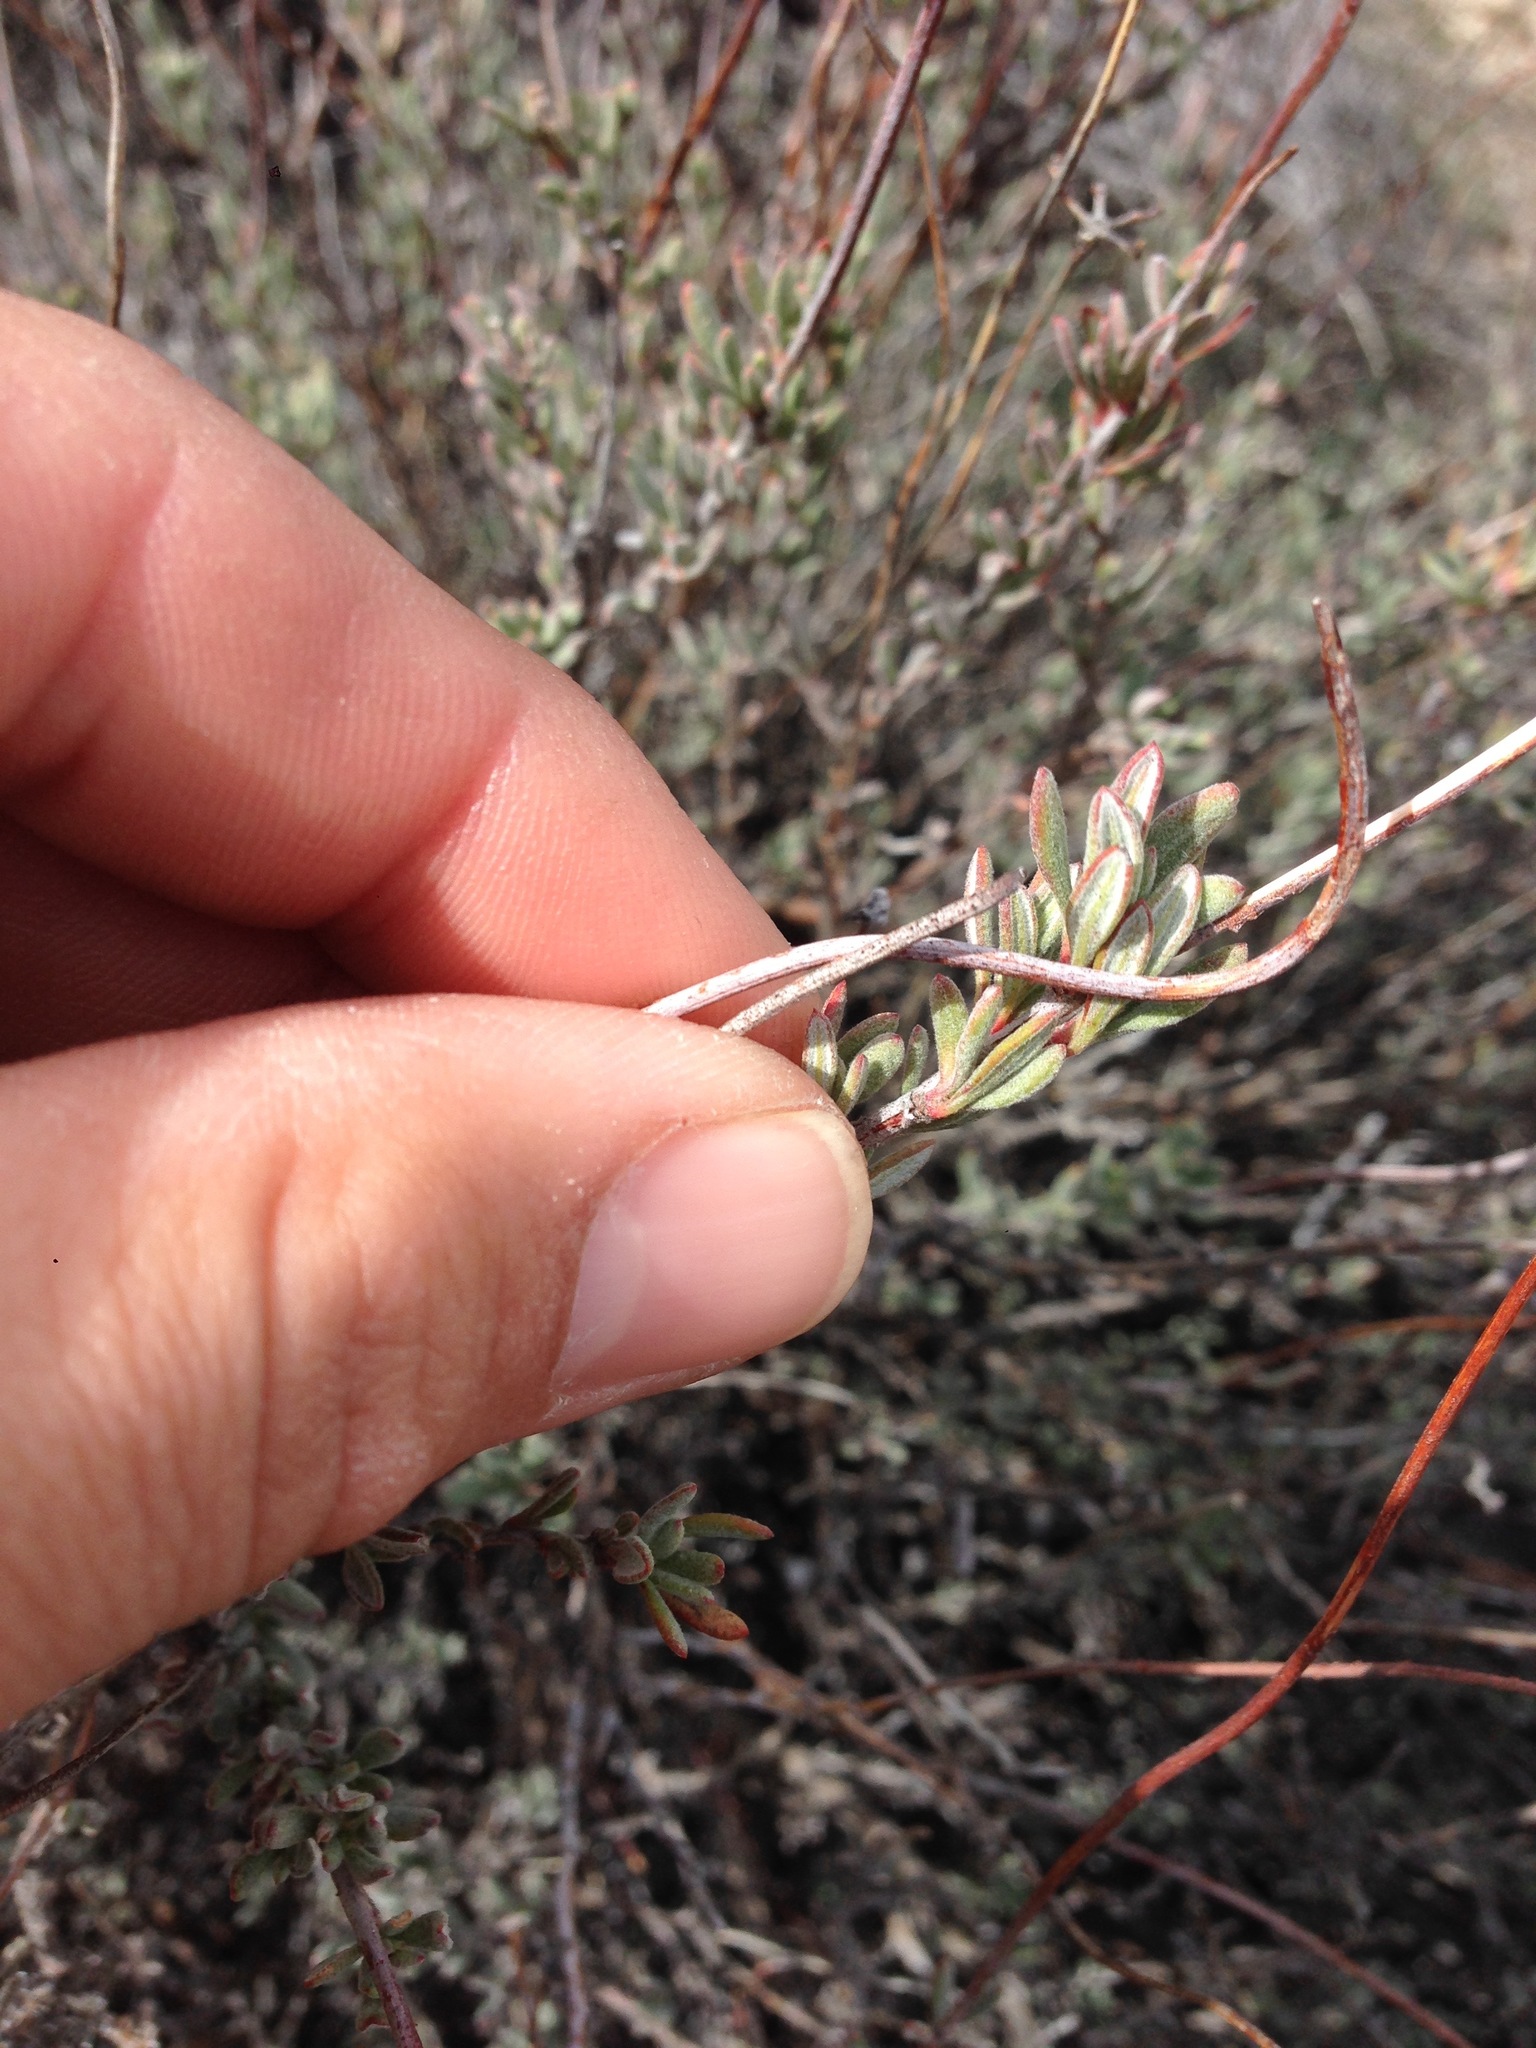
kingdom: Plantae
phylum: Tracheophyta
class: Magnoliopsida
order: Caryophyllales
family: Polygonaceae
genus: Eriogonum
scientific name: Eriogonum fasciculatum
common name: California wild buckwheat
